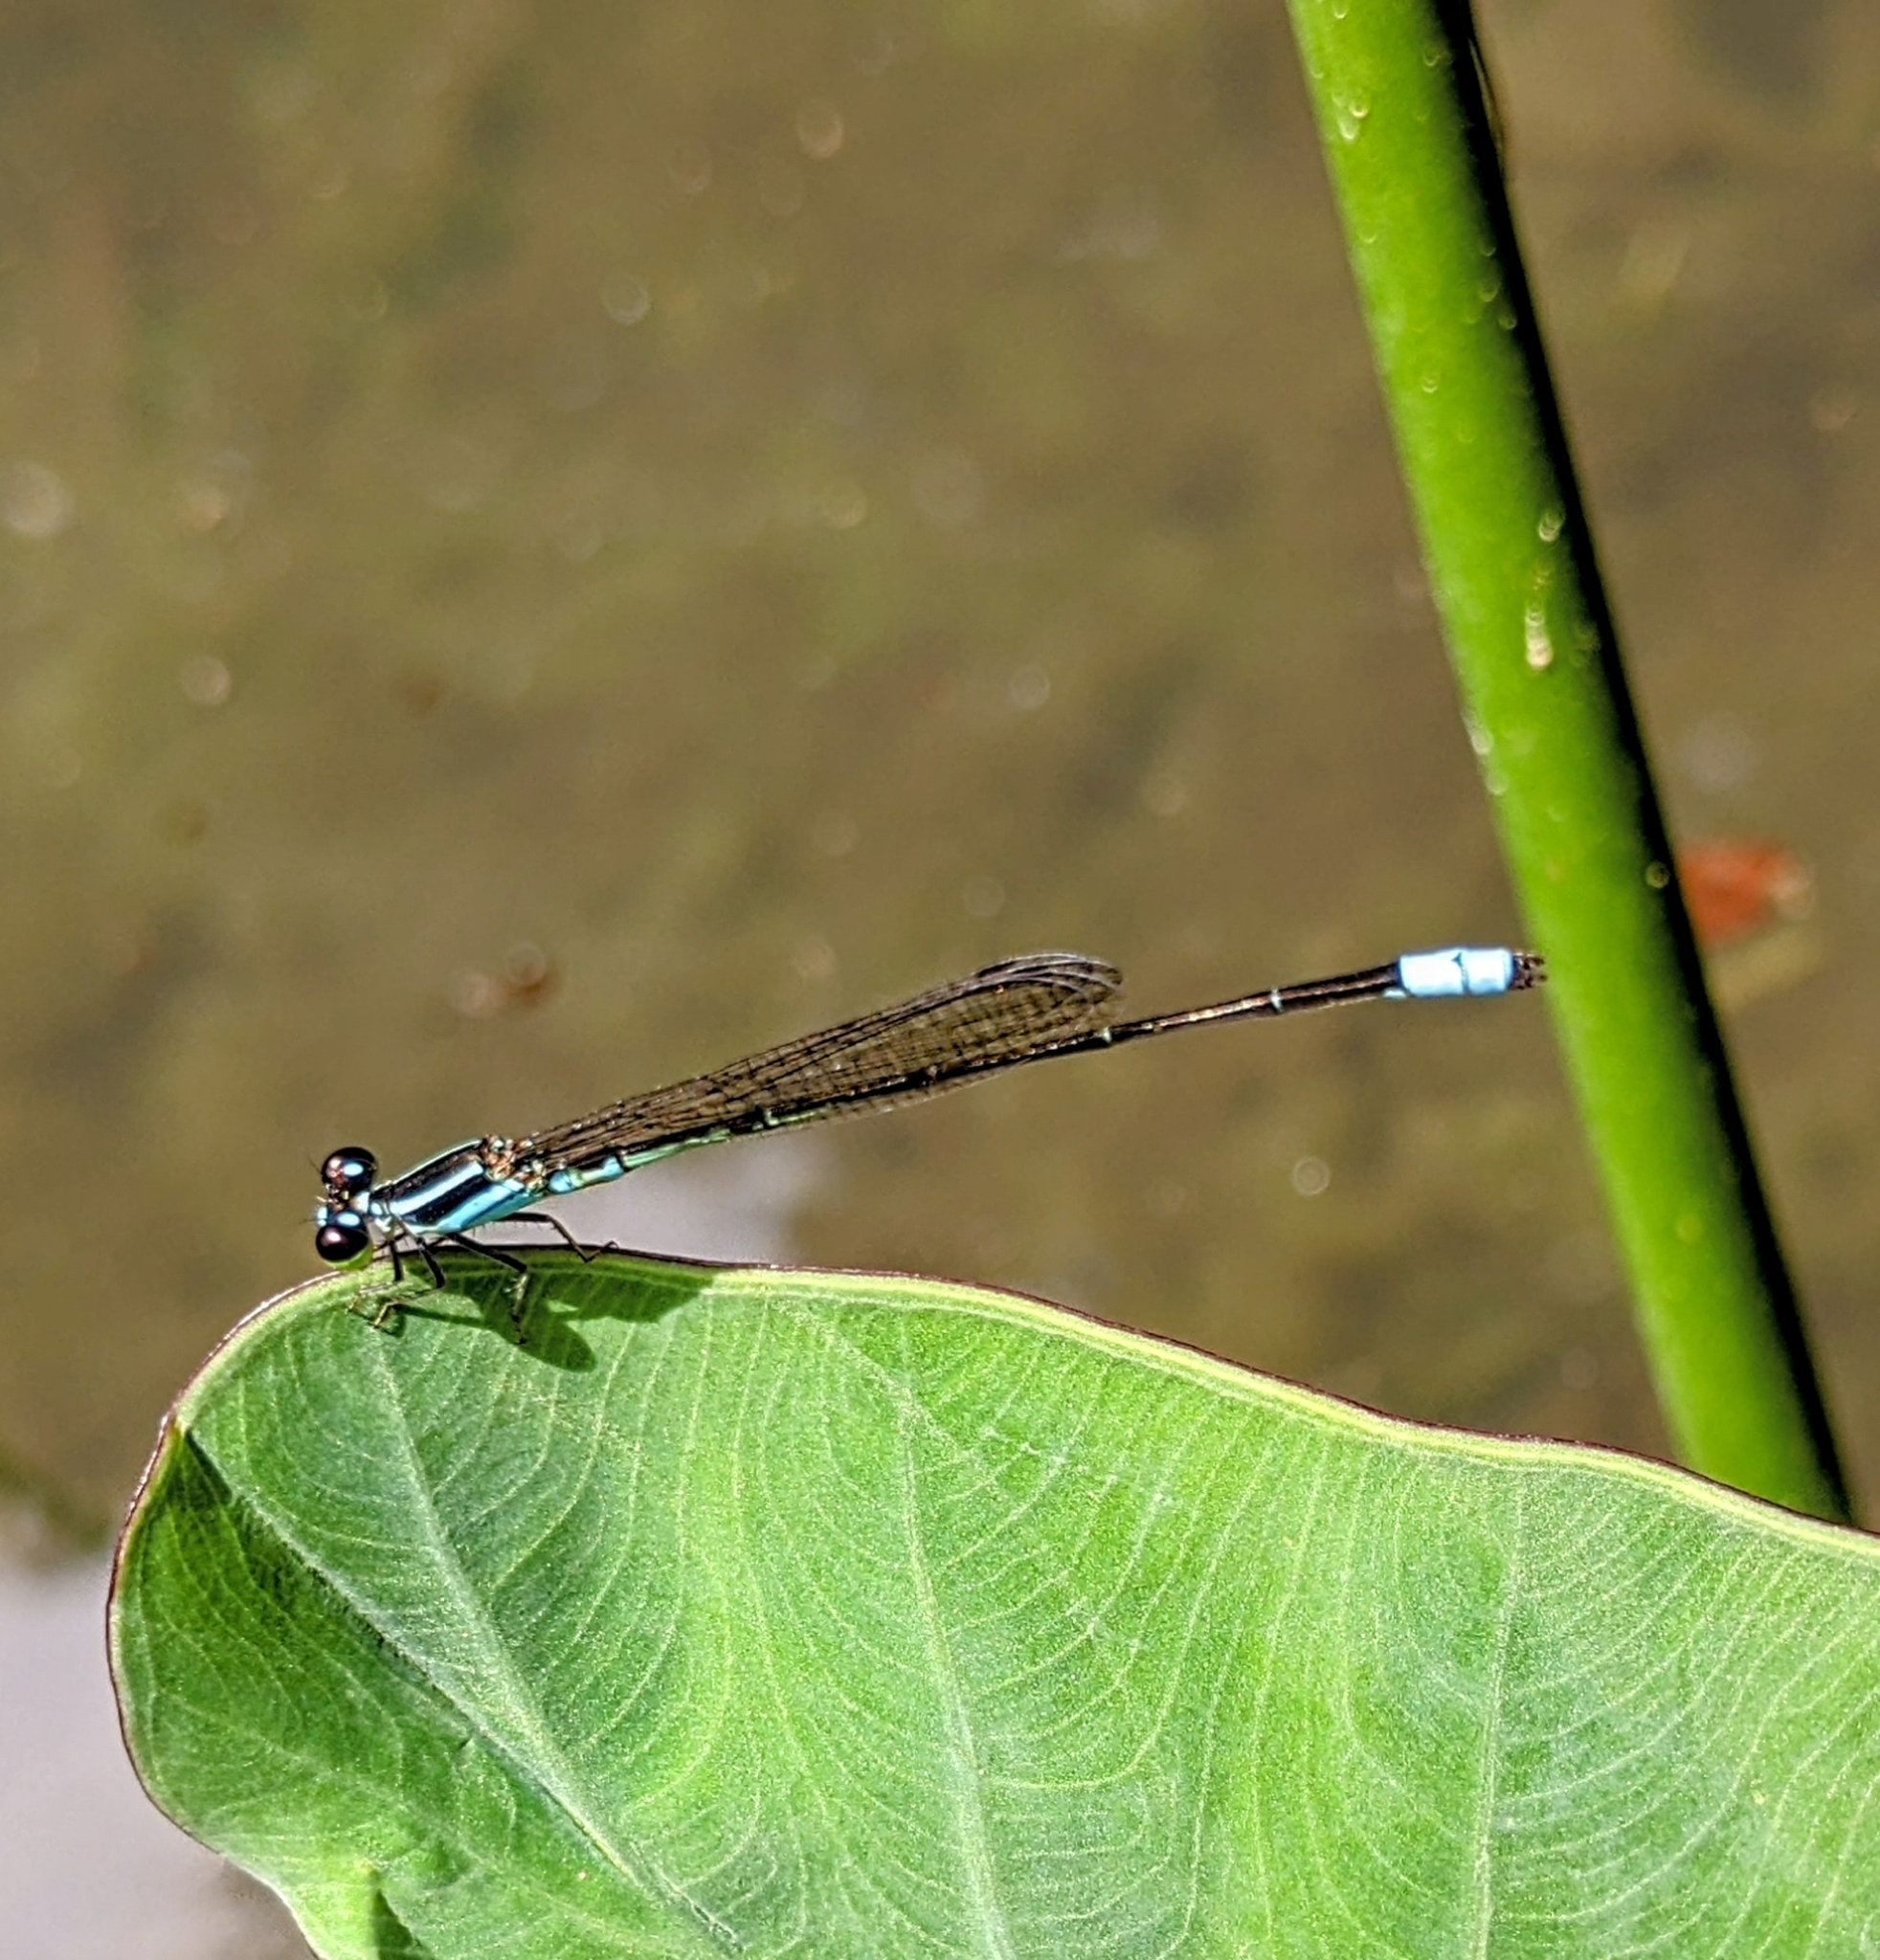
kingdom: Animalia
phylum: Arthropoda
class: Insecta
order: Odonata
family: Coenagrionidae
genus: Argiocnemis
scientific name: Argiocnemis rubescens
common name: Red-tipped shadefly
